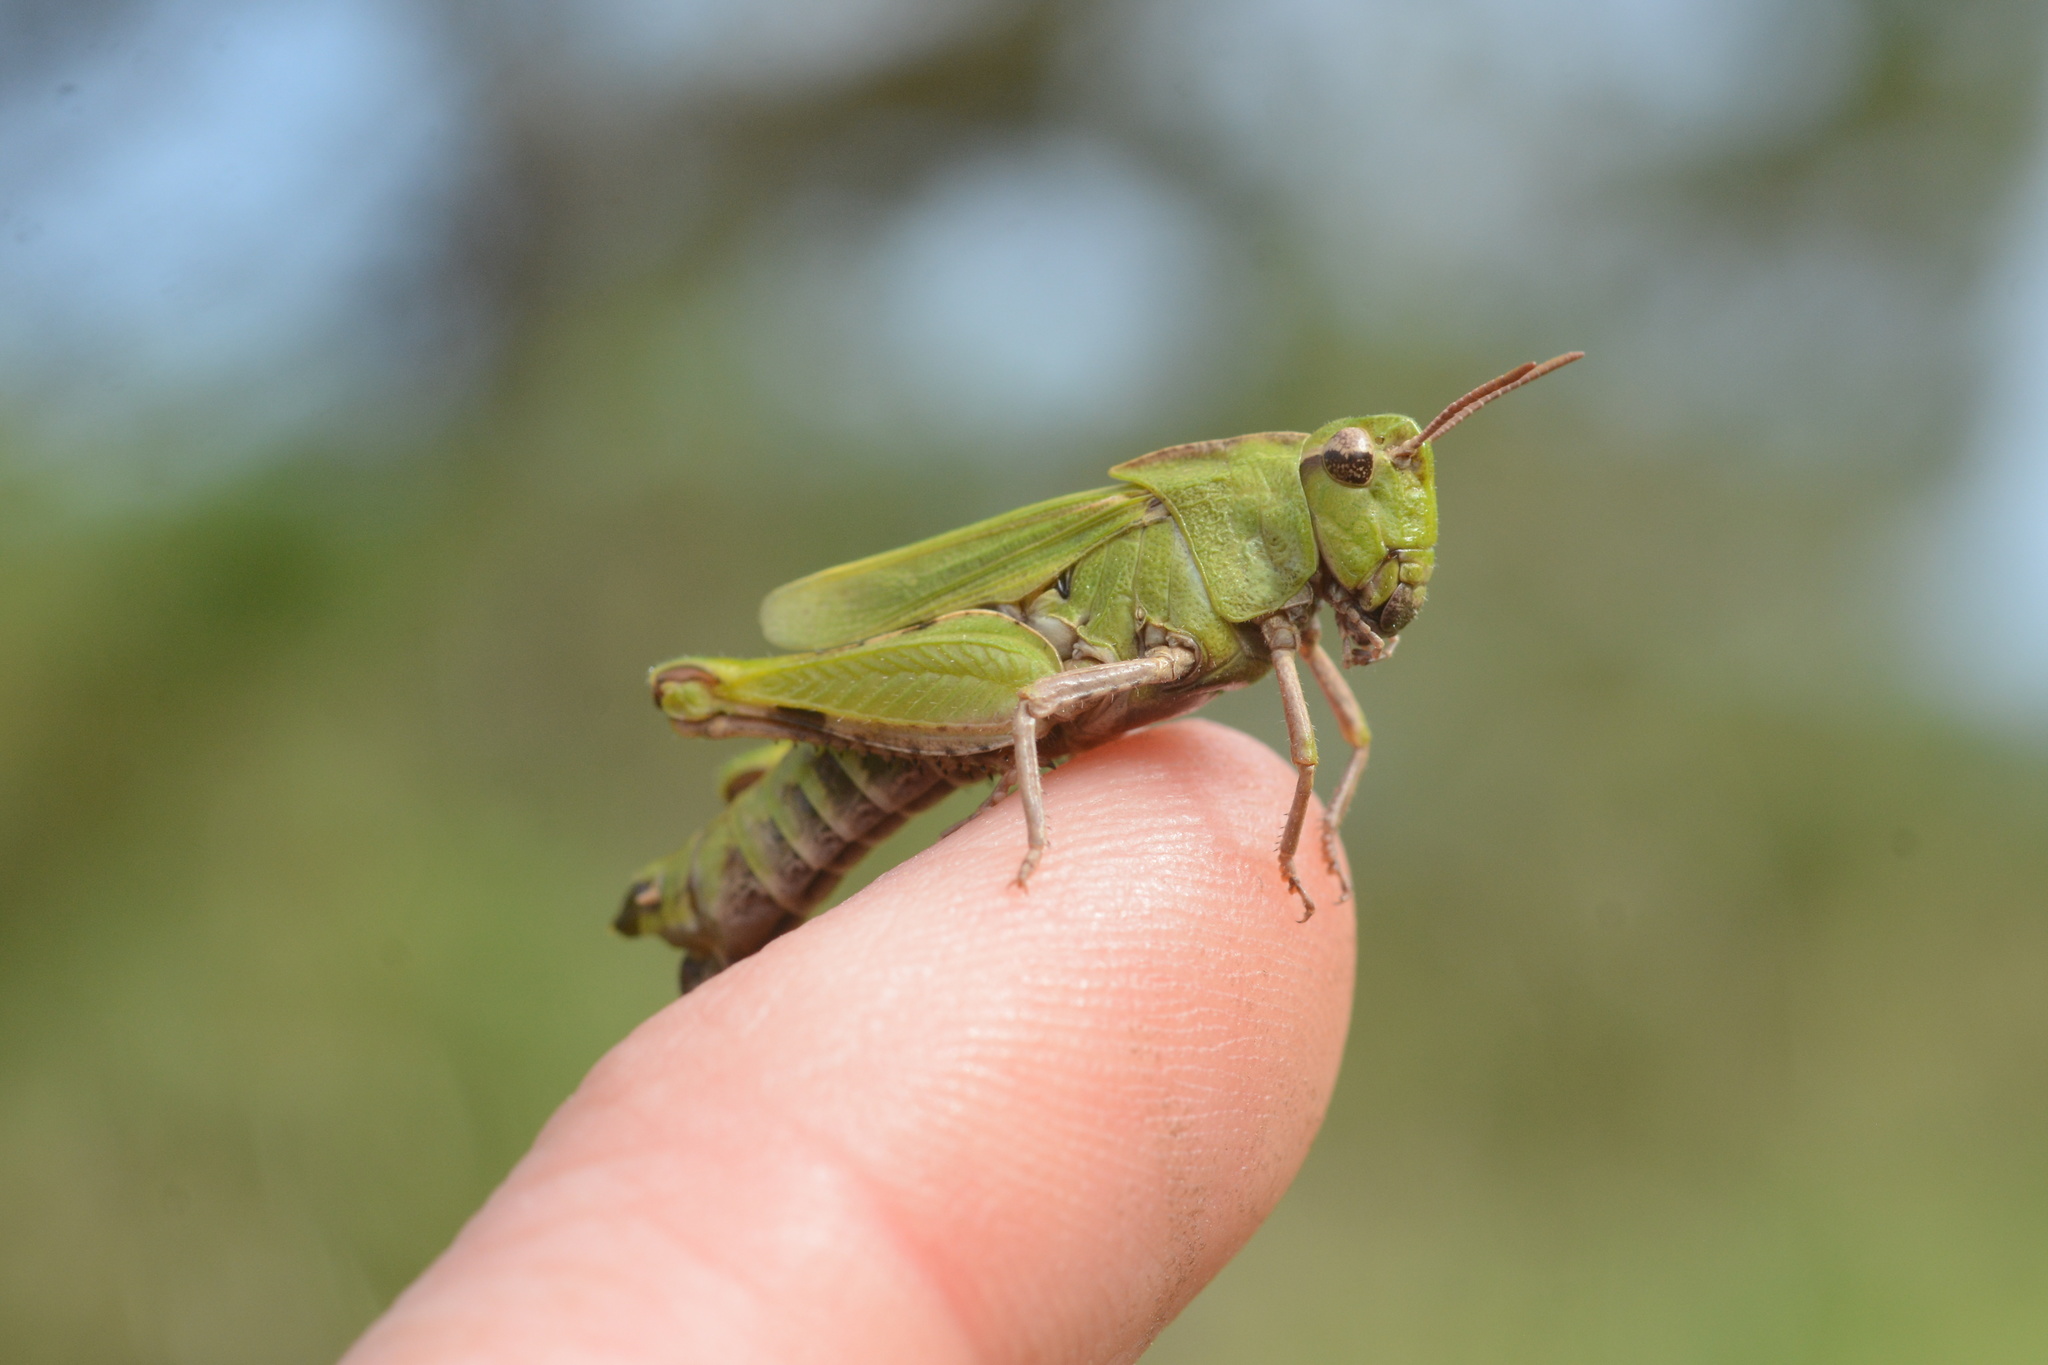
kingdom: Animalia
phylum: Arthropoda
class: Insecta
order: Orthoptera
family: Acrididae
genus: Chimarocephala
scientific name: Chimarocephala pacifica
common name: Painted meadow grasshopper
